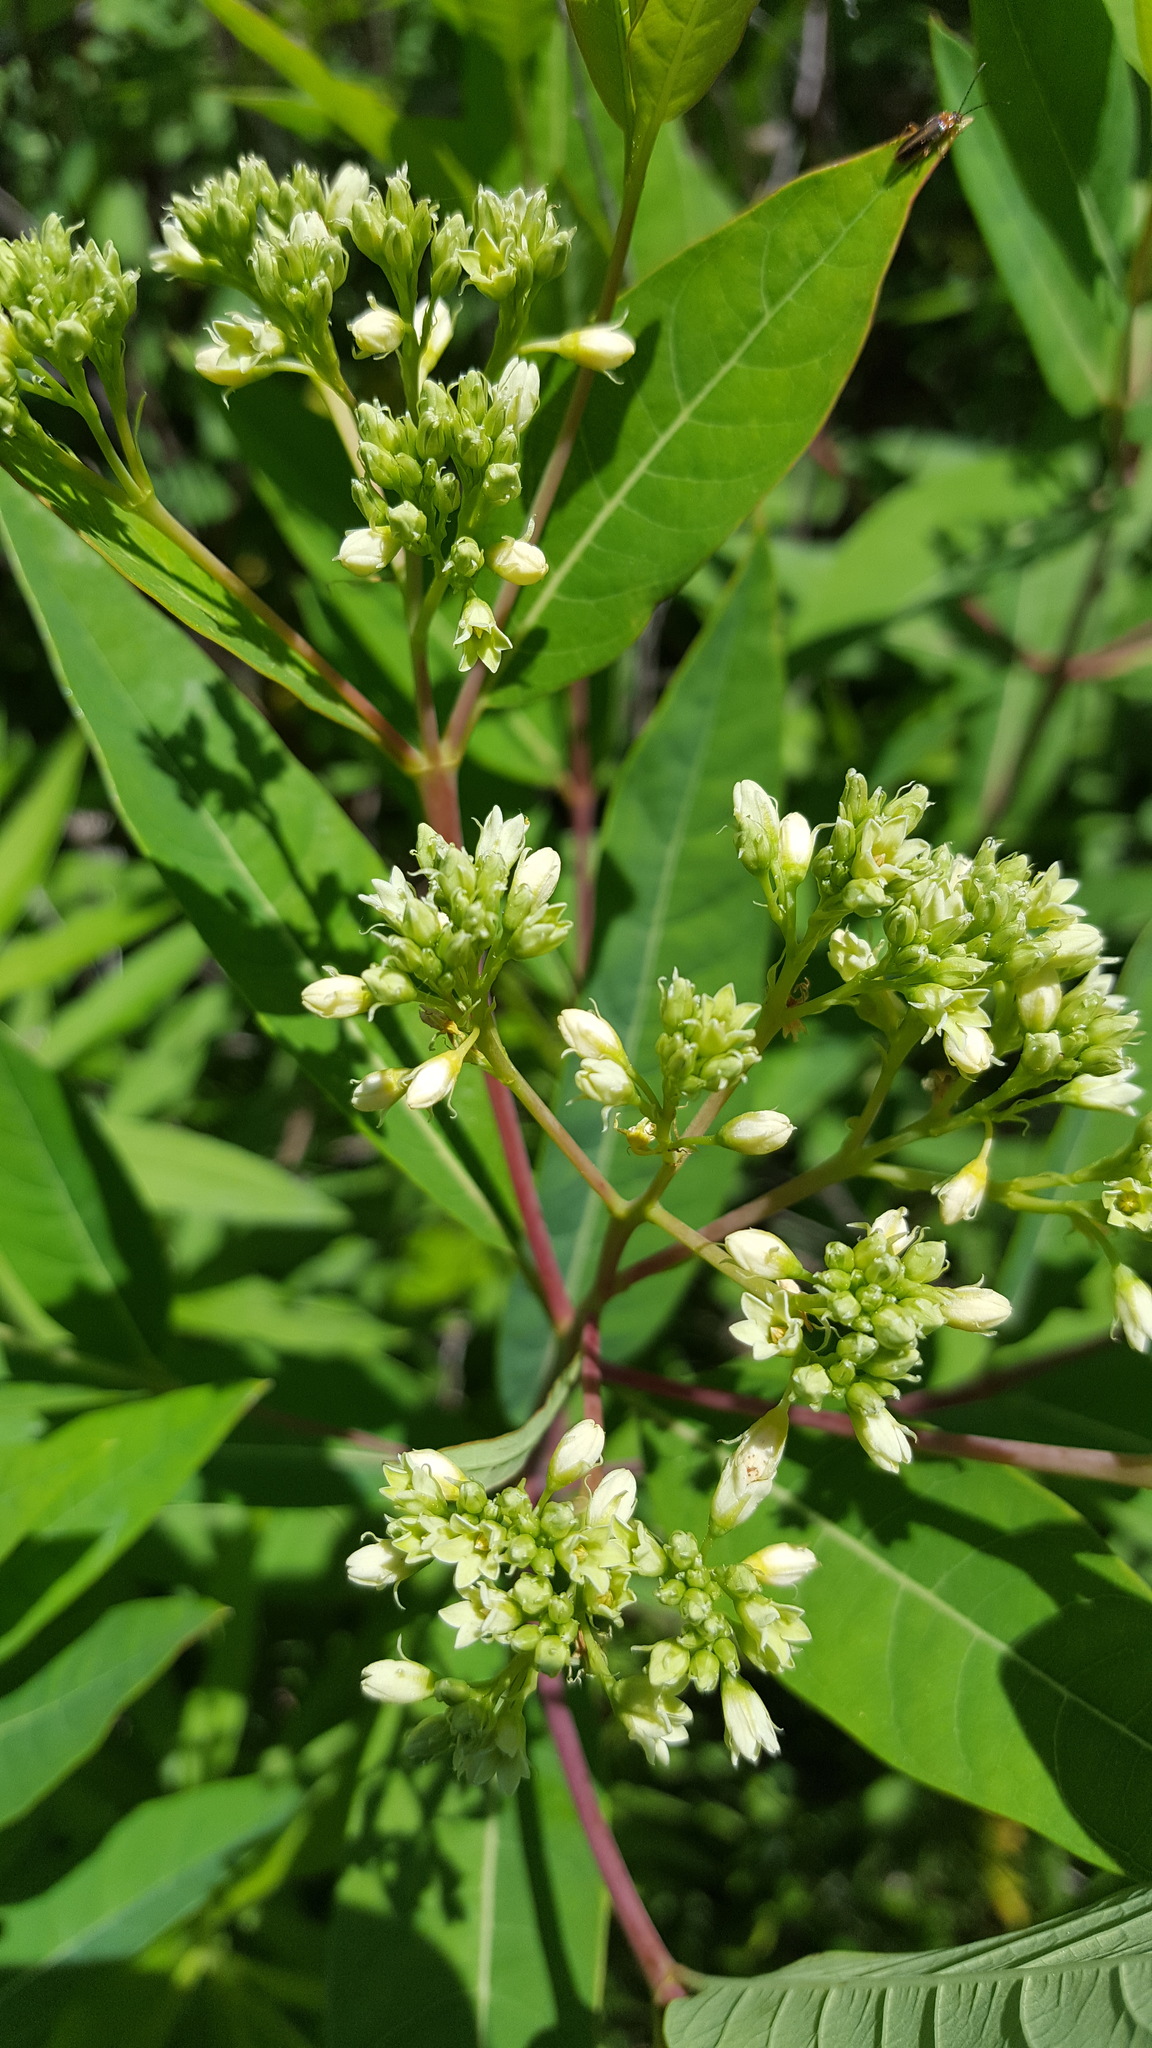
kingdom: Plantae
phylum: Tracheophyta
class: Magnoliopsida
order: Gentianales
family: Apocynaceae
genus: Apocynum
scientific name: Apocynum floribundum
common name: Hybrid dogbane
